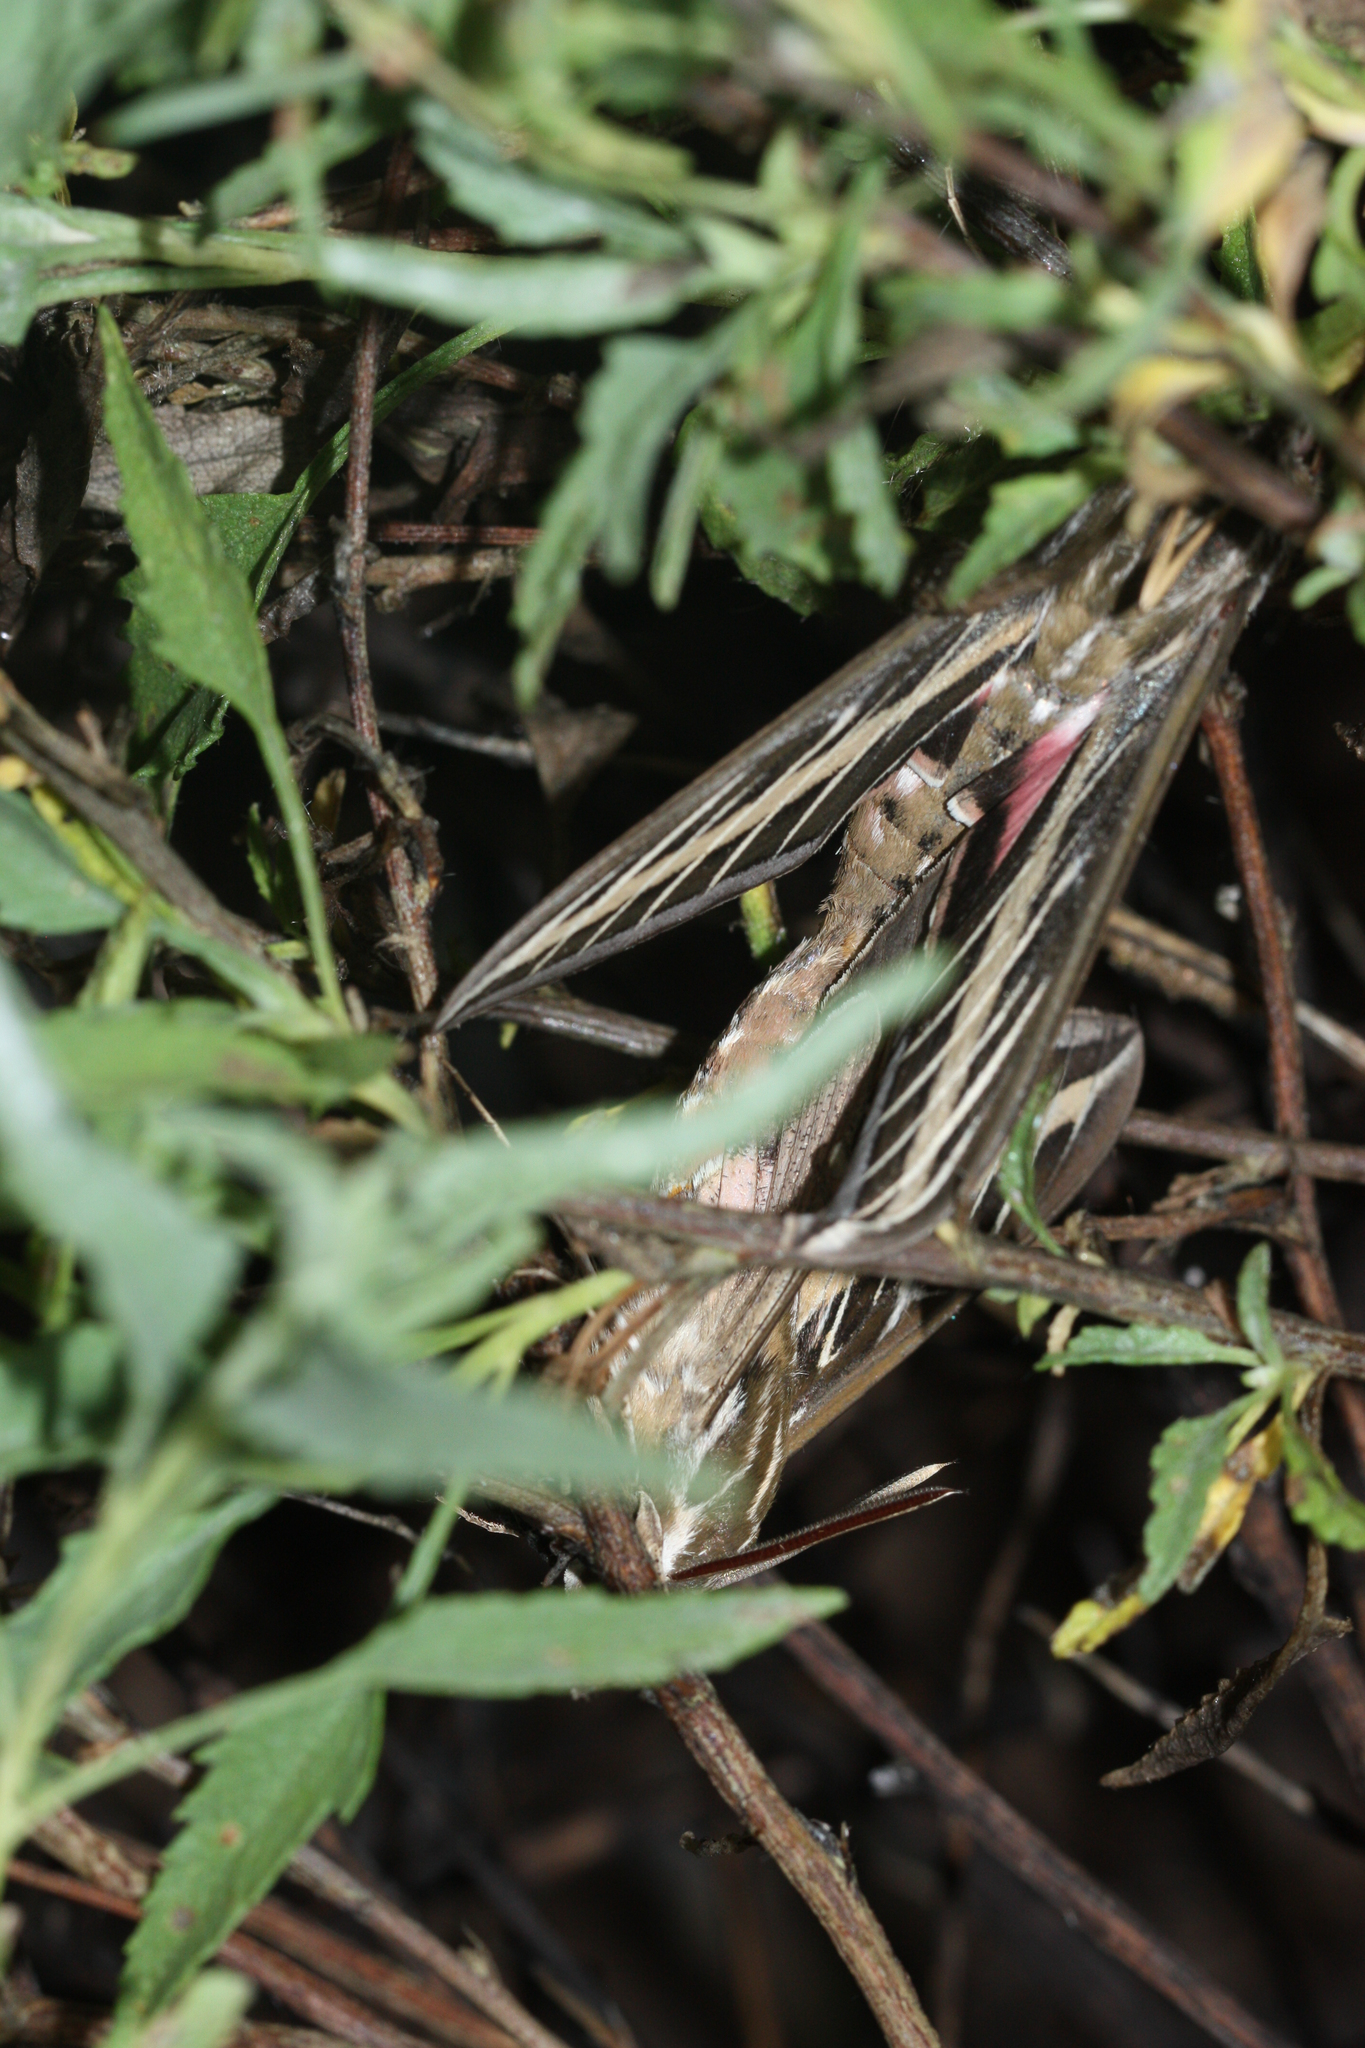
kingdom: Animalia
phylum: Arthropoda
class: Insecta
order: Lepidoptera
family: Sphingidae
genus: Hyles
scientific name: Hyles lineata
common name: White-lined sphinx
